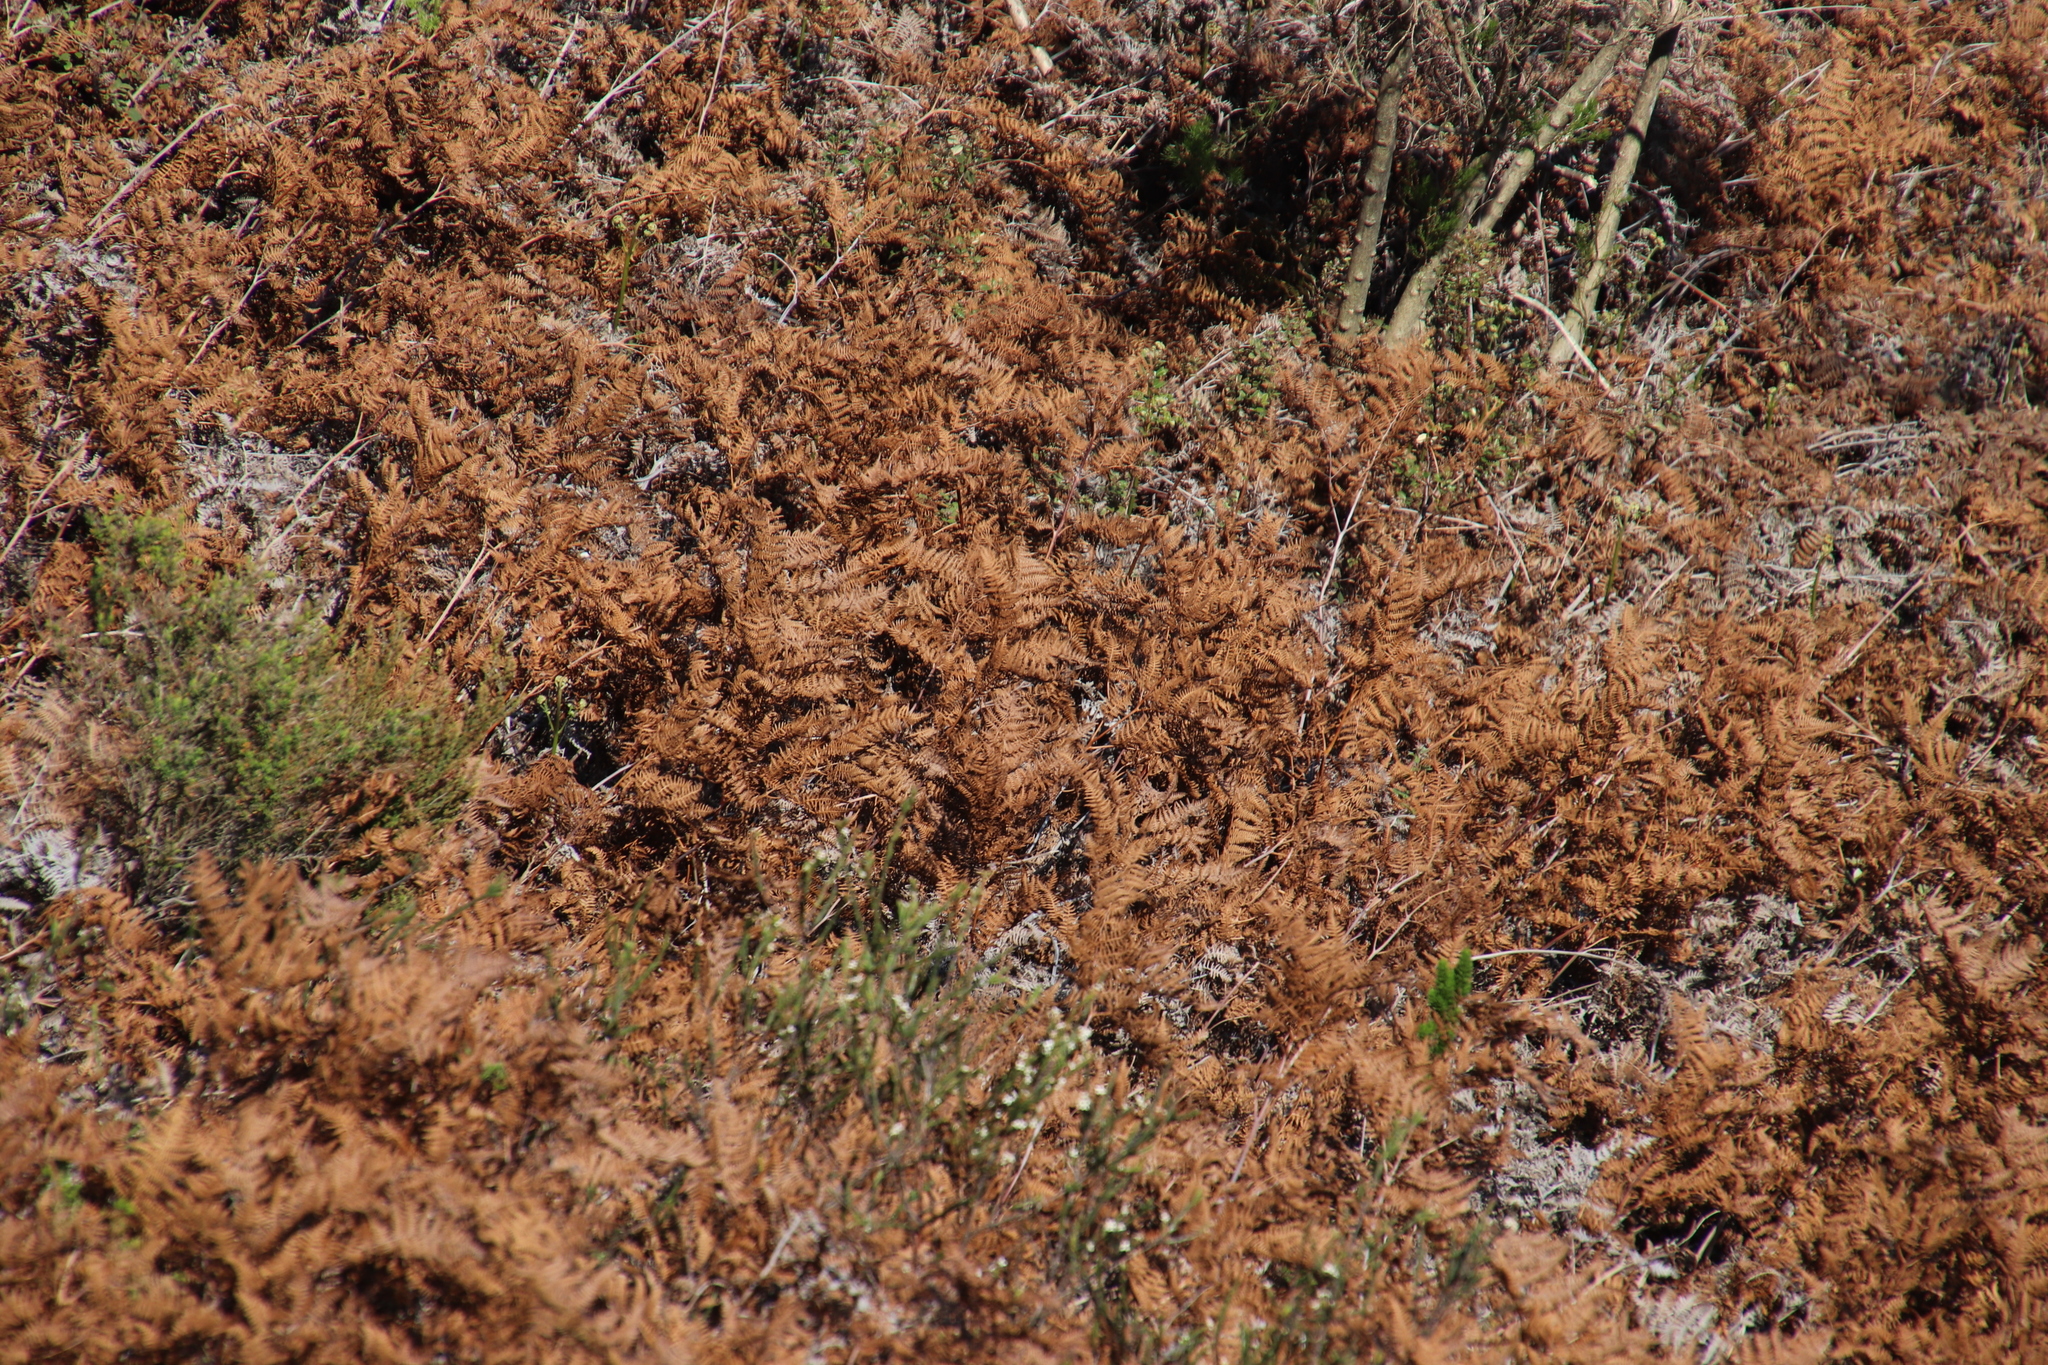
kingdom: Plantae
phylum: Tracheophyta
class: Polypodiopsida
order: Polypodiales
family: Dennstaedtiaceae
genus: Pteridium
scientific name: Pteridium aquilinum
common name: Bracken
